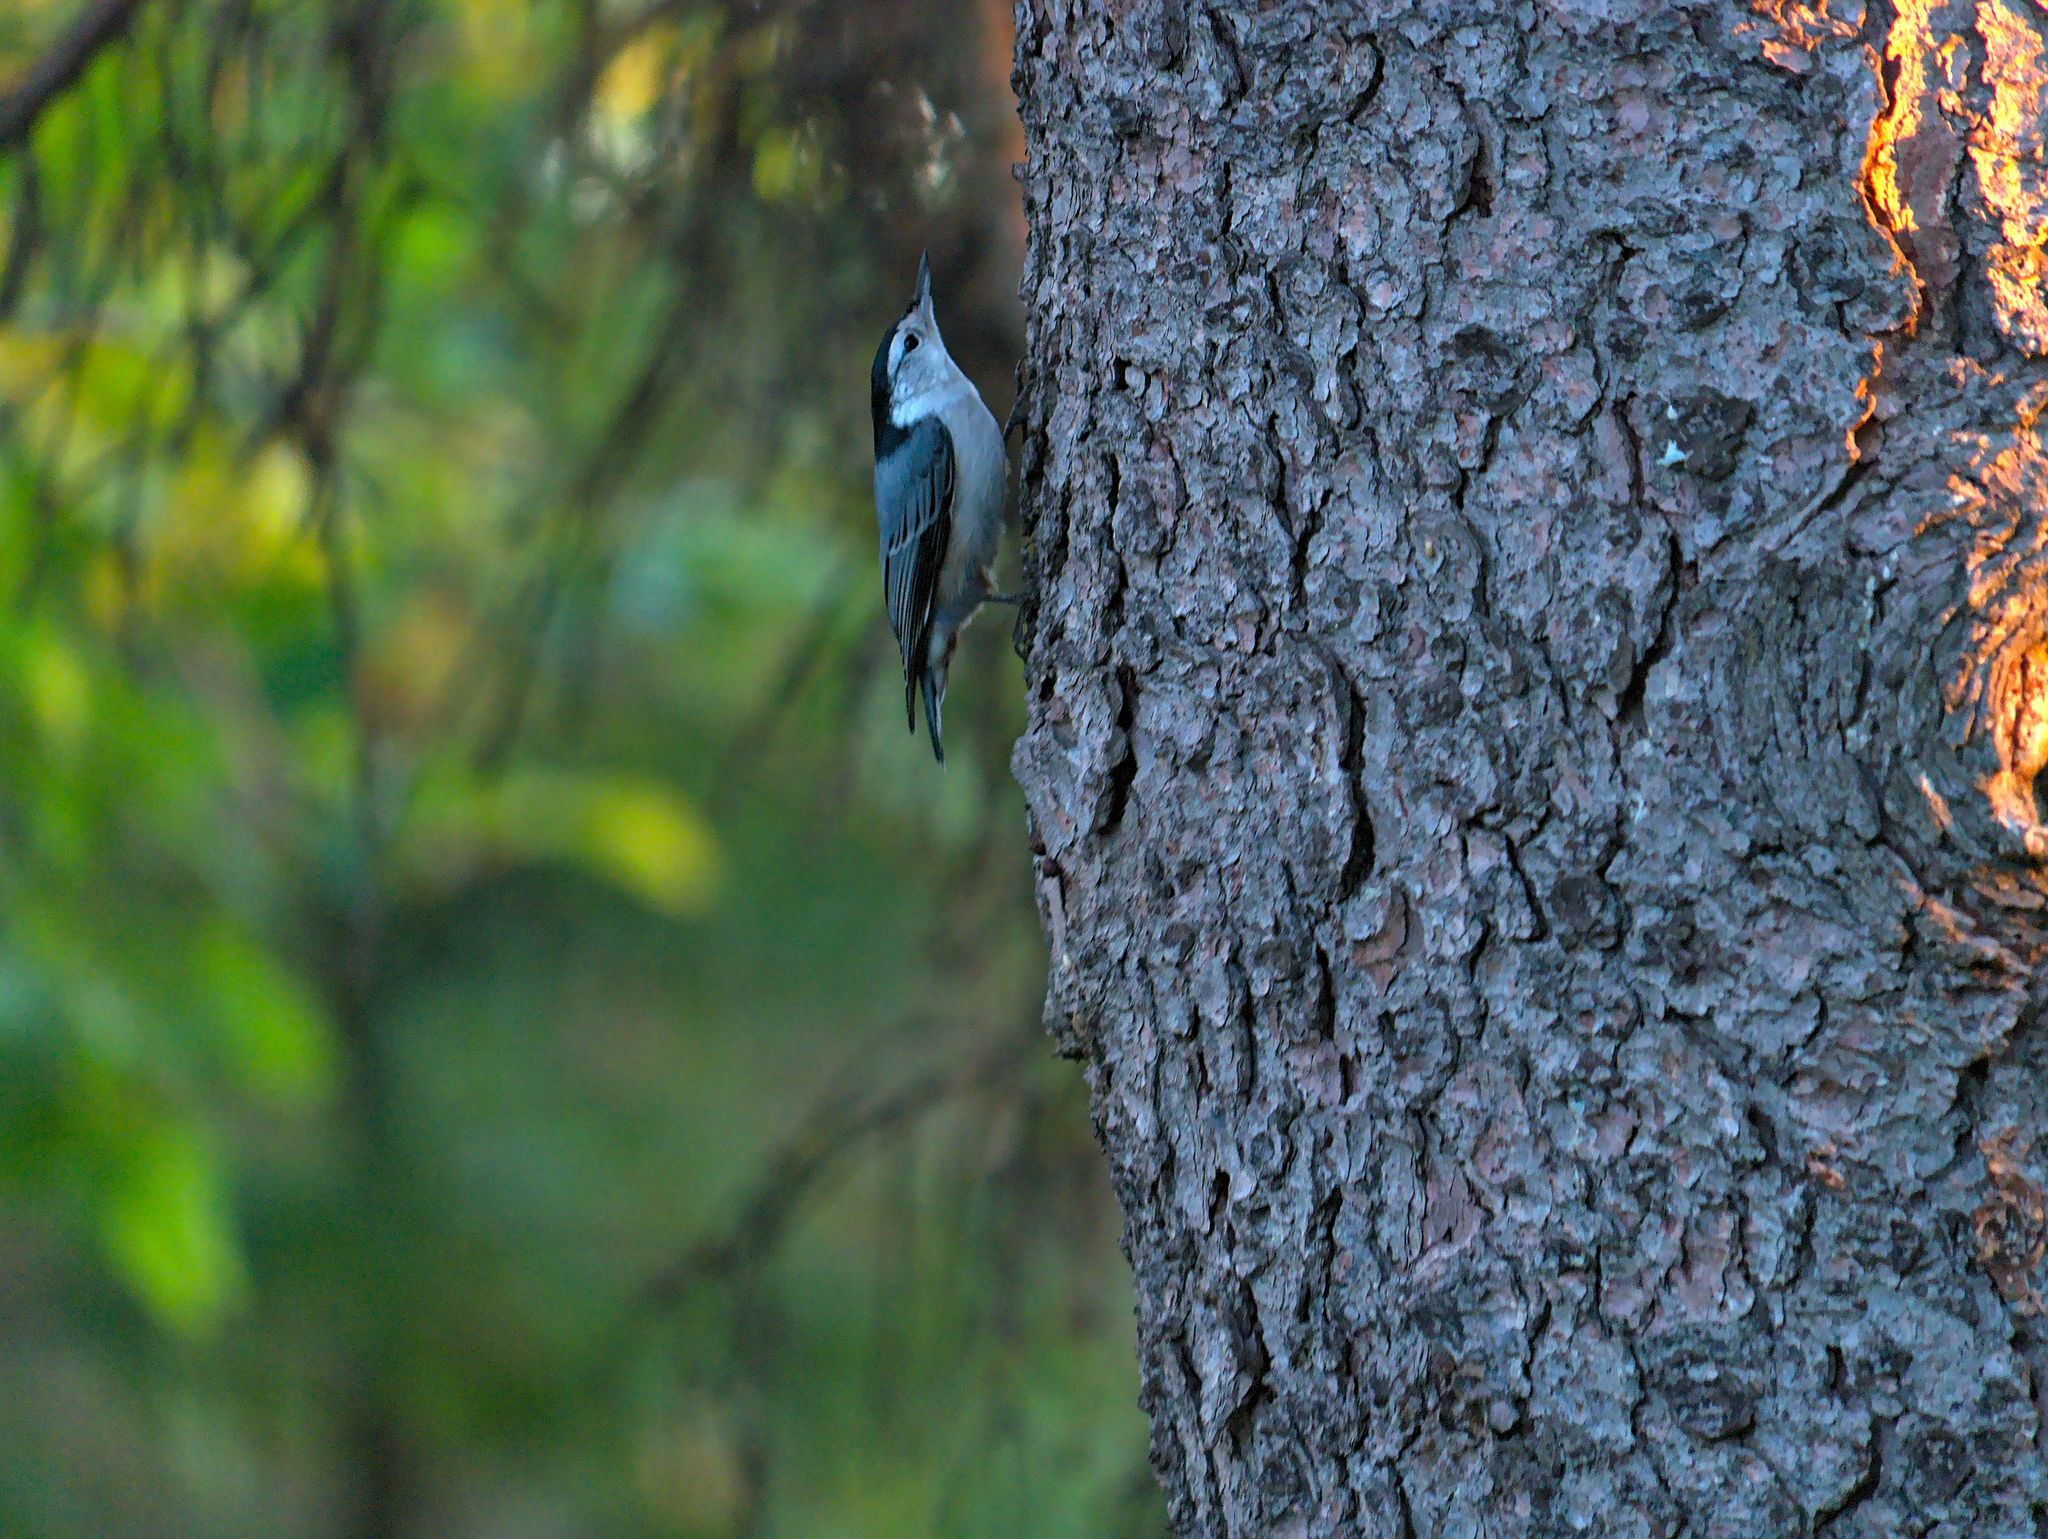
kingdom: Animalia
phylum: Chordata
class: Aves
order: Passeriformes
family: Sittidae
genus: Sitta
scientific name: Sitta carolinensis
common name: White-breasted nuthatch
